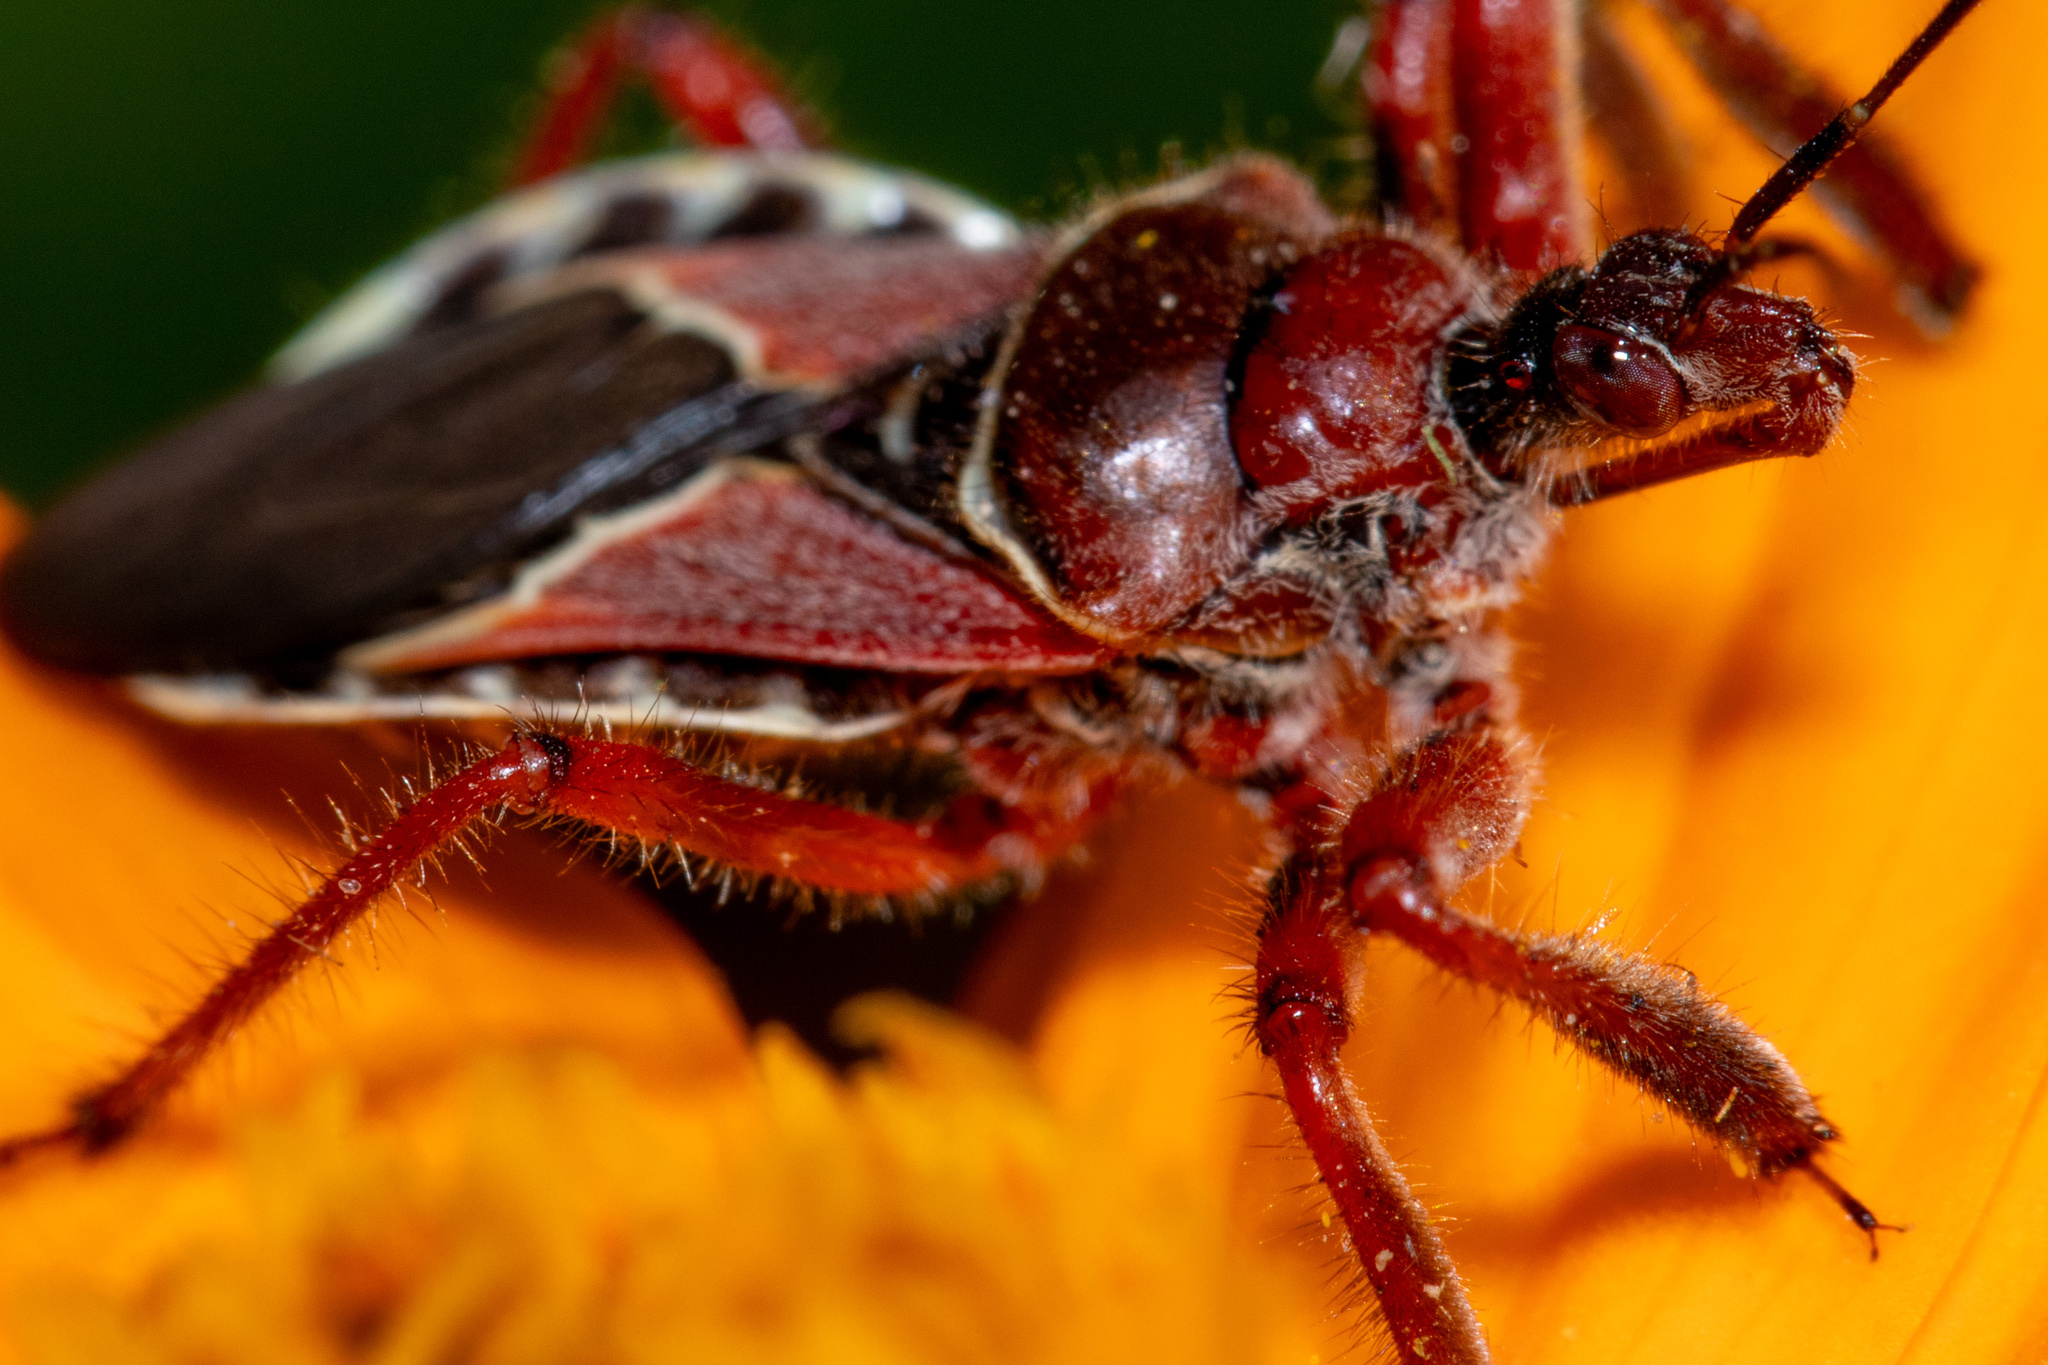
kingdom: Animalia
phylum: Arthropoda
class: Insecta
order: Hemiptera
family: Reduviidae
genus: Apiomerus
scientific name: Apiomerus spissipes
